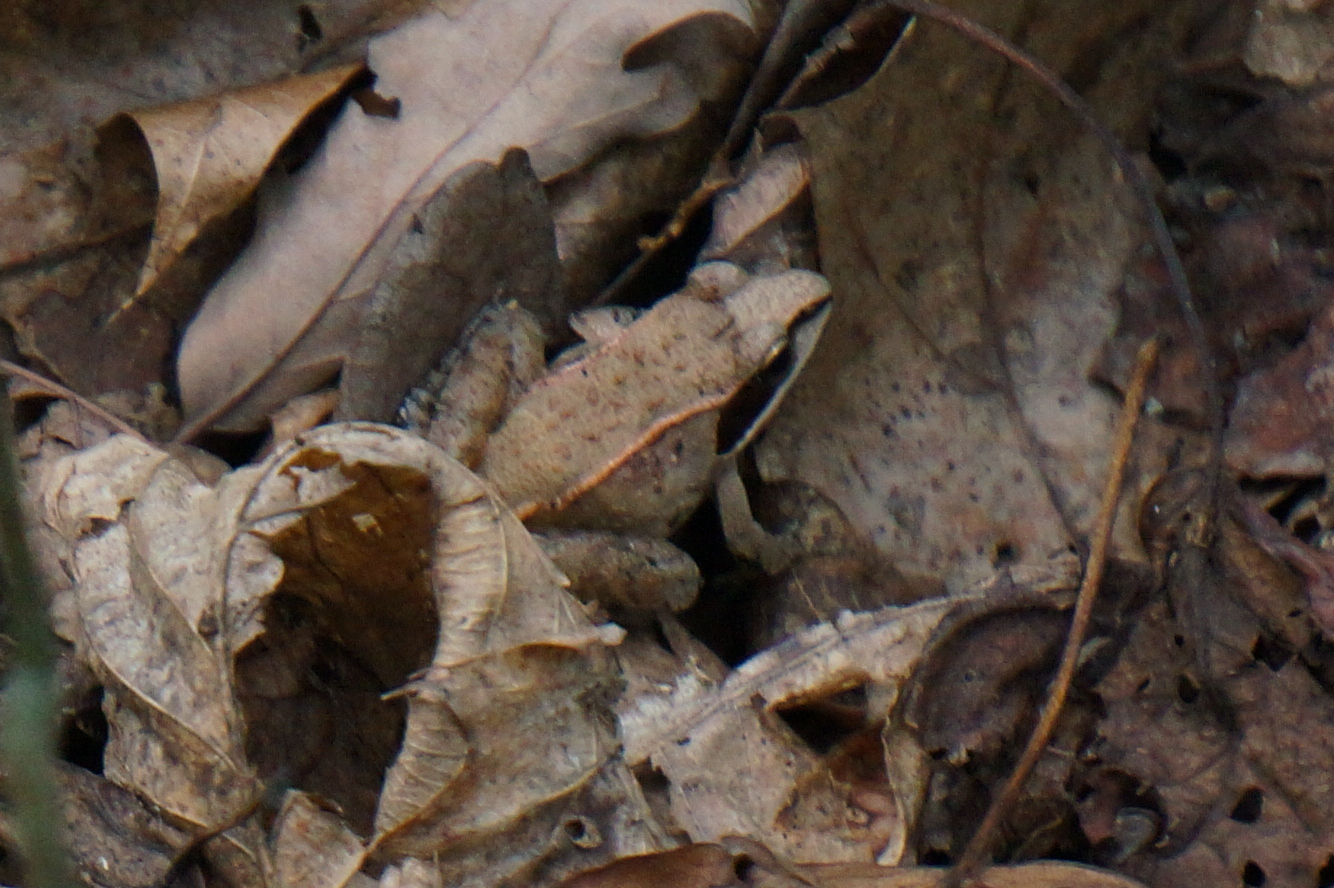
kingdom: Animalia
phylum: Chordata
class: Amphibia
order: Anura
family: Ranidae
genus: Lithobates
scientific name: Lithobates sylvaticus
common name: Wood frog
